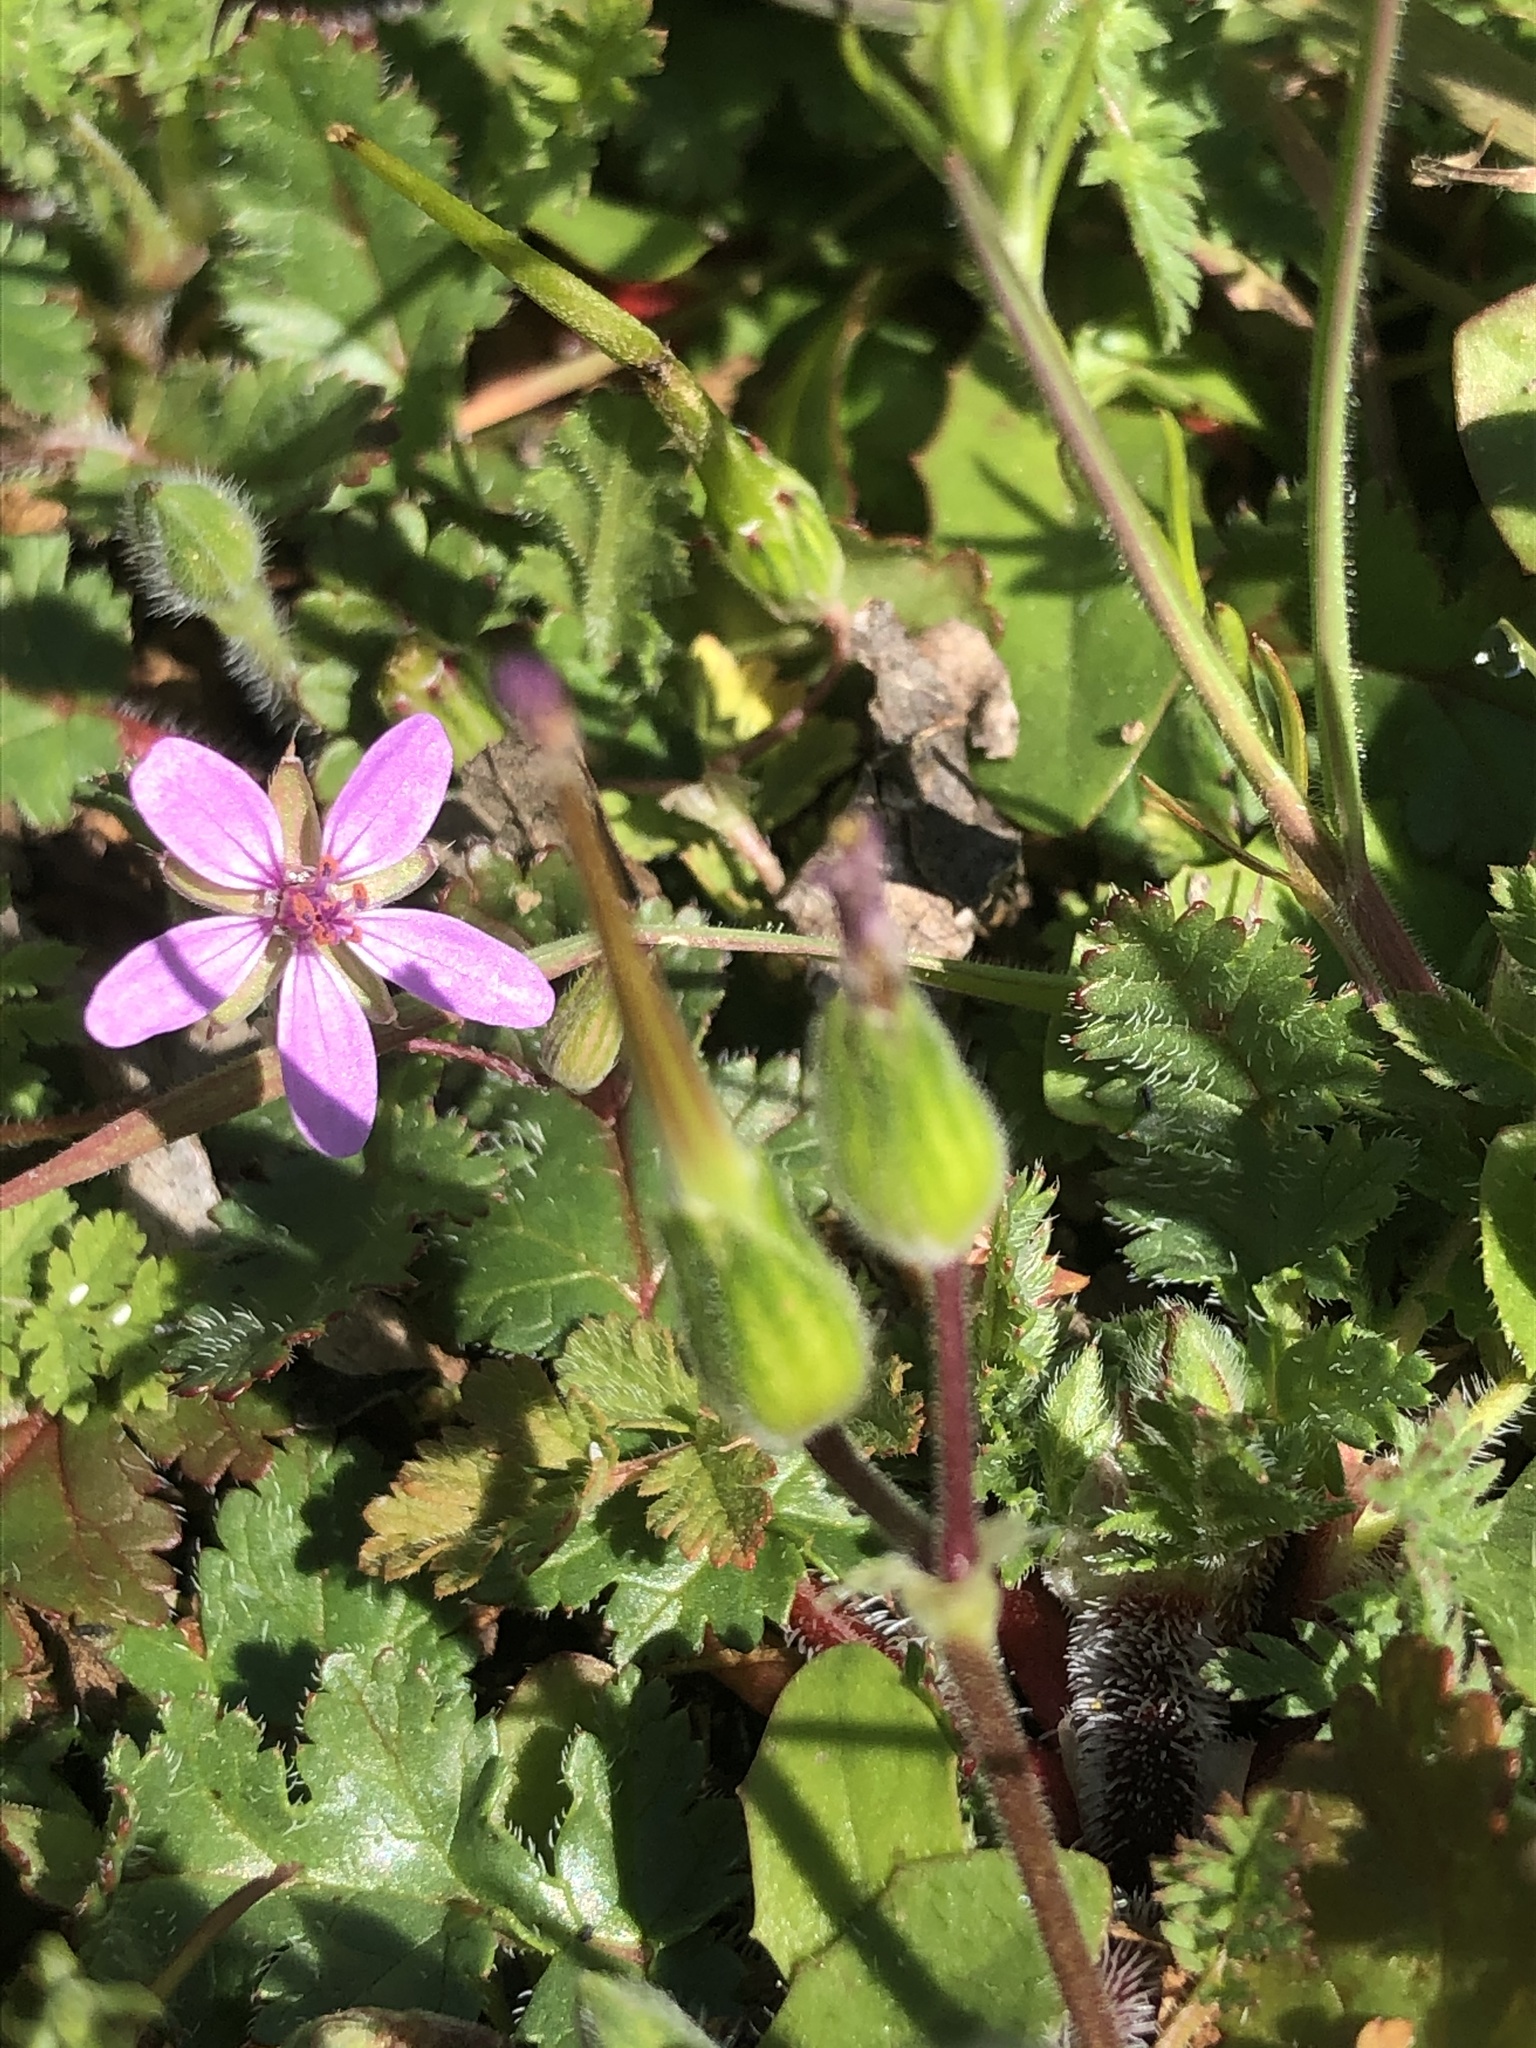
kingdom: Plantae
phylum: Tracheophyta
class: Magnoliopsida
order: Geraniales
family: Geraniaceae
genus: Erodium
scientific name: Erodium botrys
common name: Mediterranean stork's-bill
